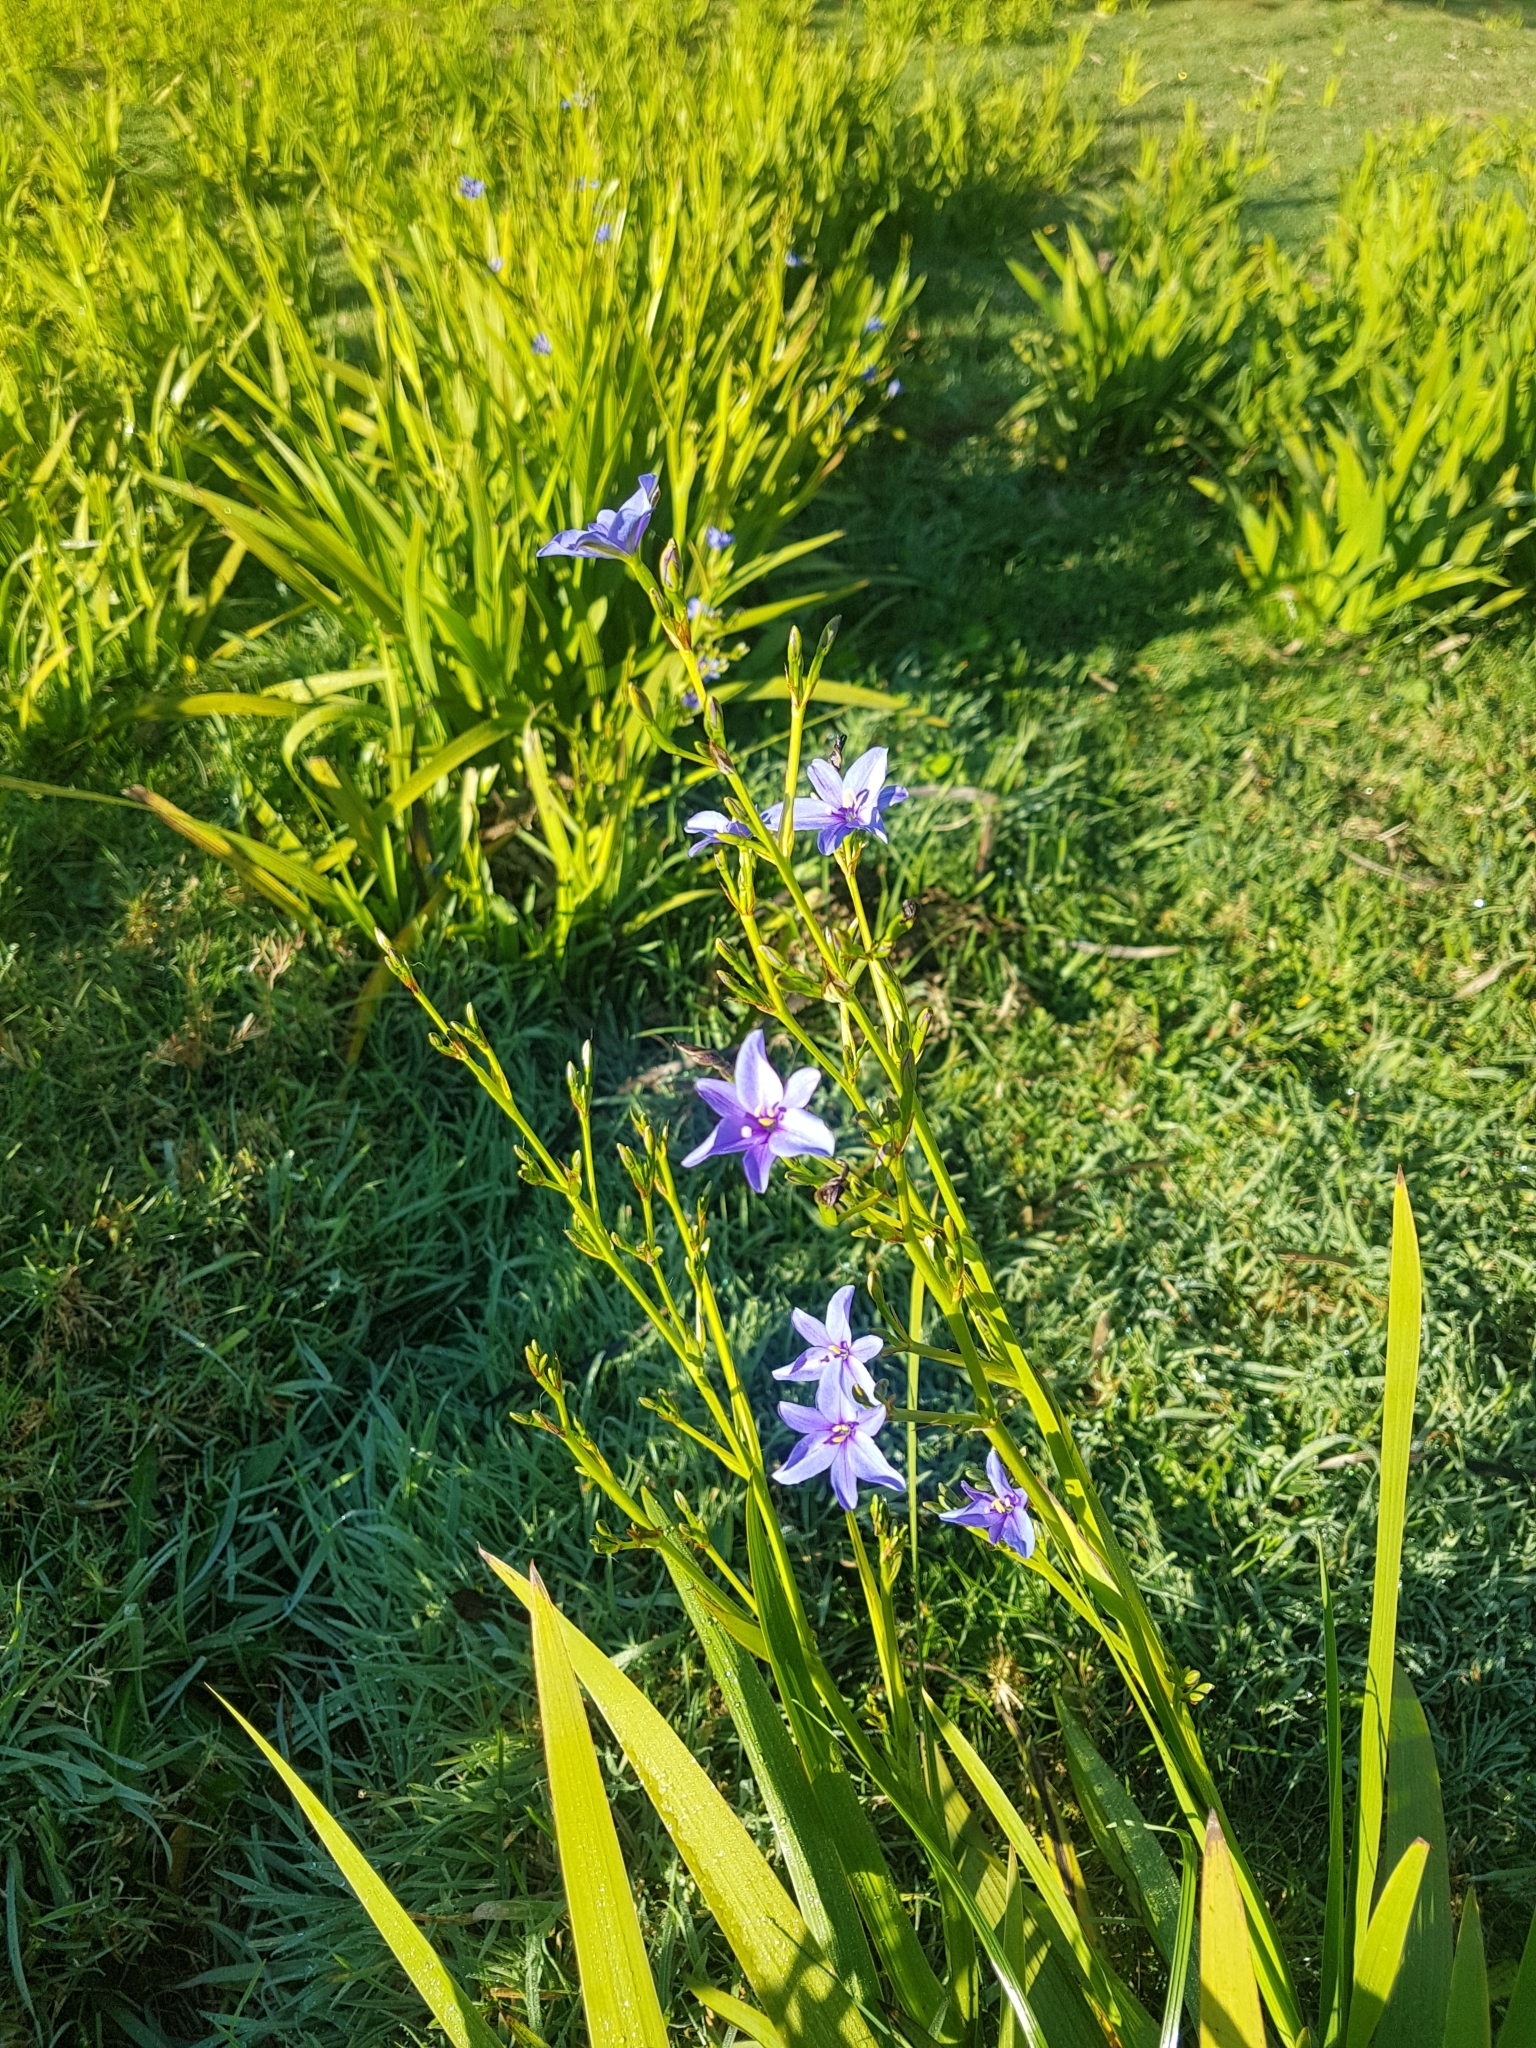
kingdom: Plantae
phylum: Tracheophyta
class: Liliopsida
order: Asparagales
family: Iridaceae
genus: Aristea
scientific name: Aristea ecklonii
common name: Blue corn-lily
